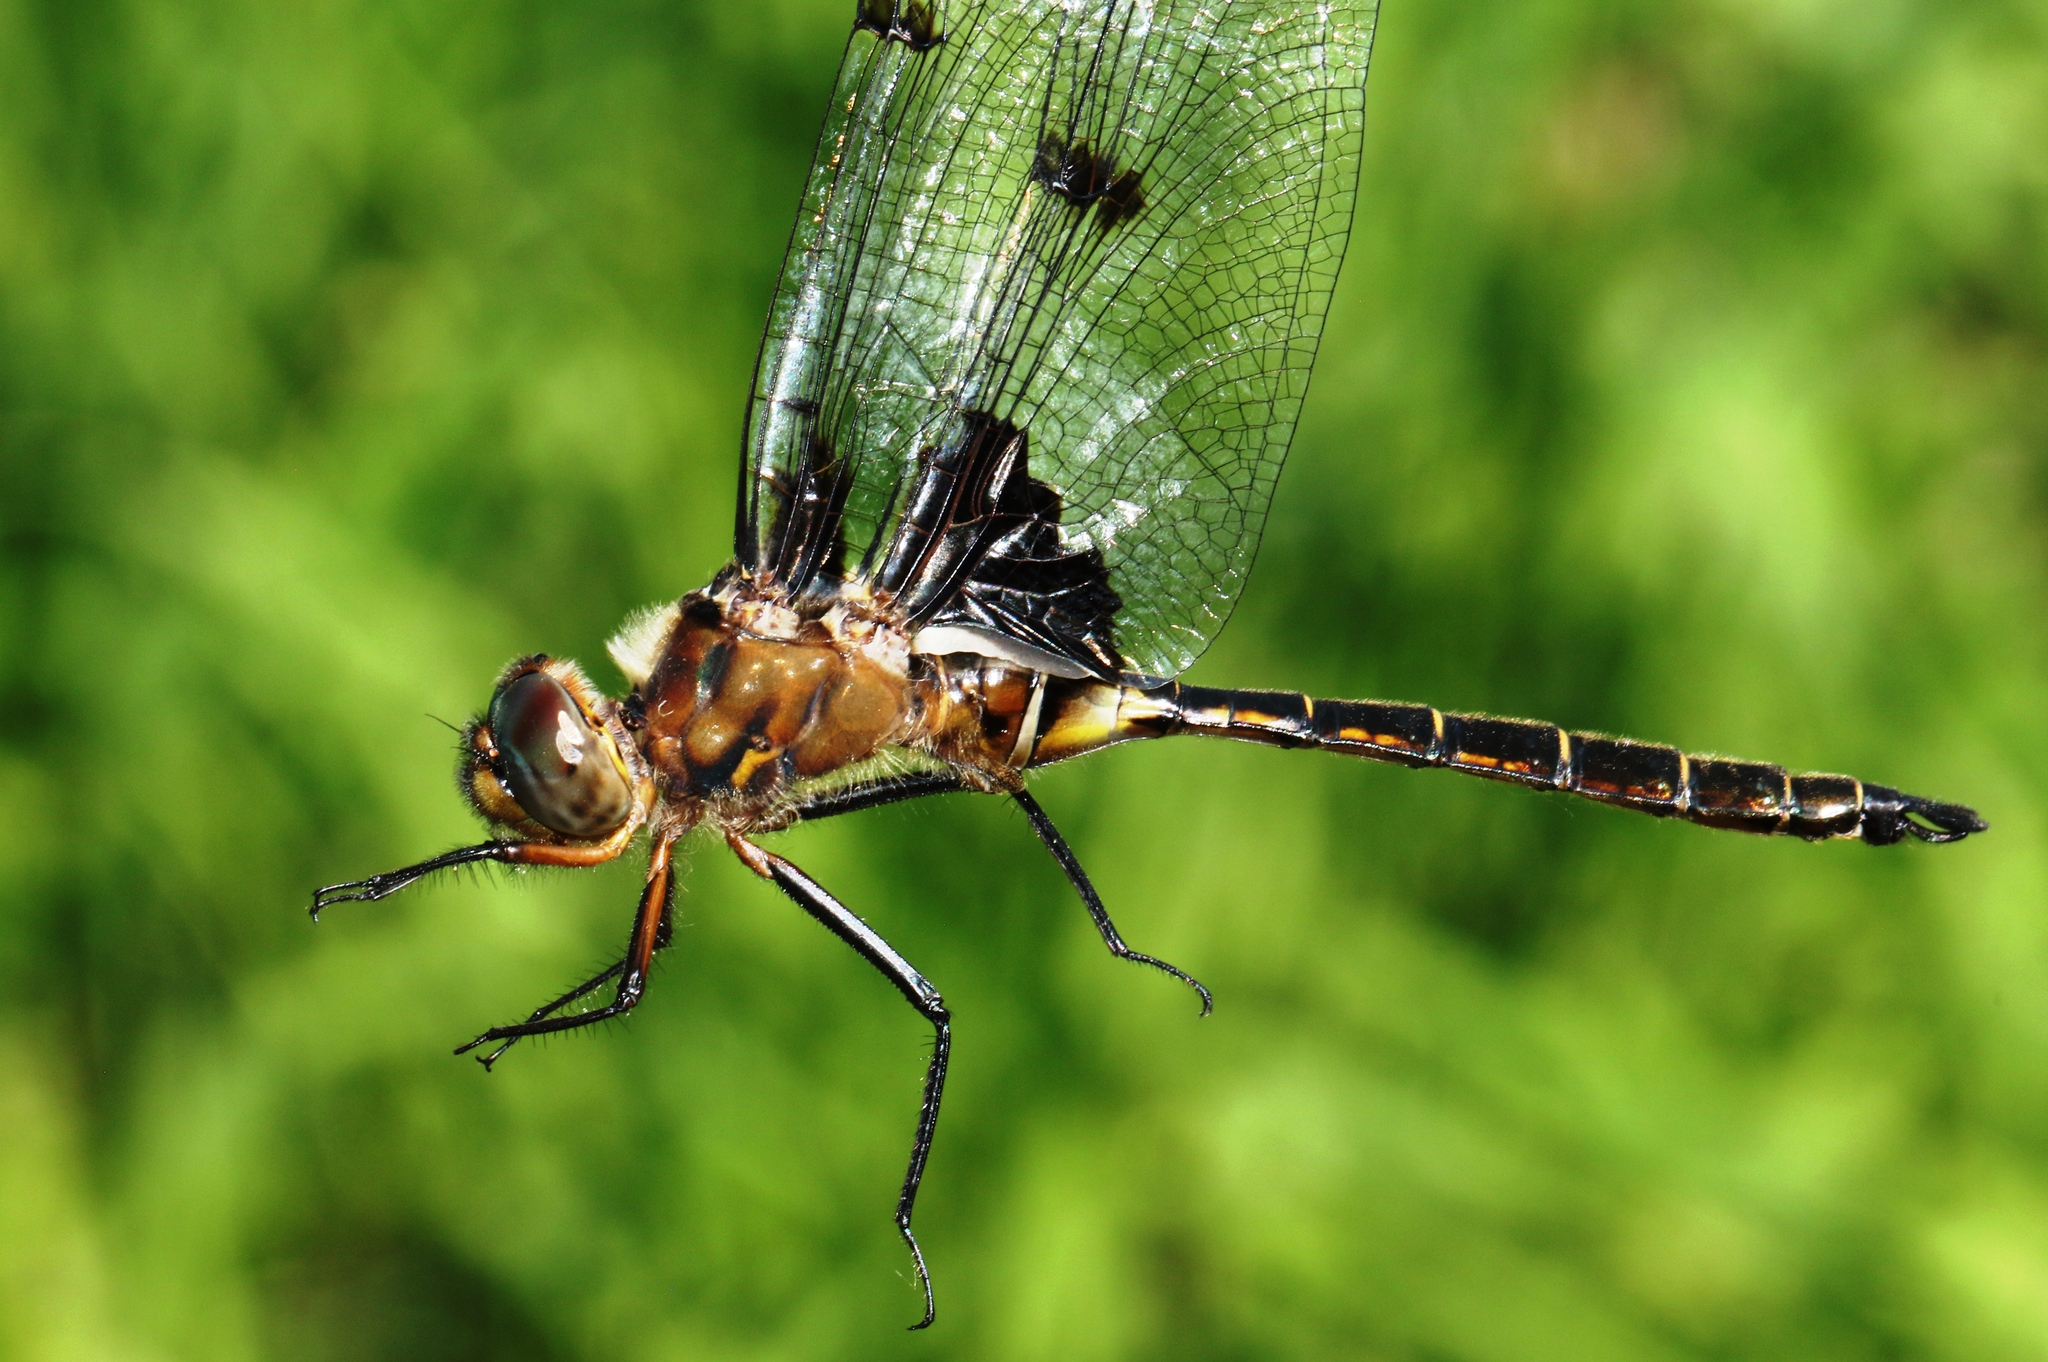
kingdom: Animalia
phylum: Arthropoda
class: Insecta
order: Odonata
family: Corduliidae
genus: Epitheca
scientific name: Epitheca princeps
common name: Prince baskettail
